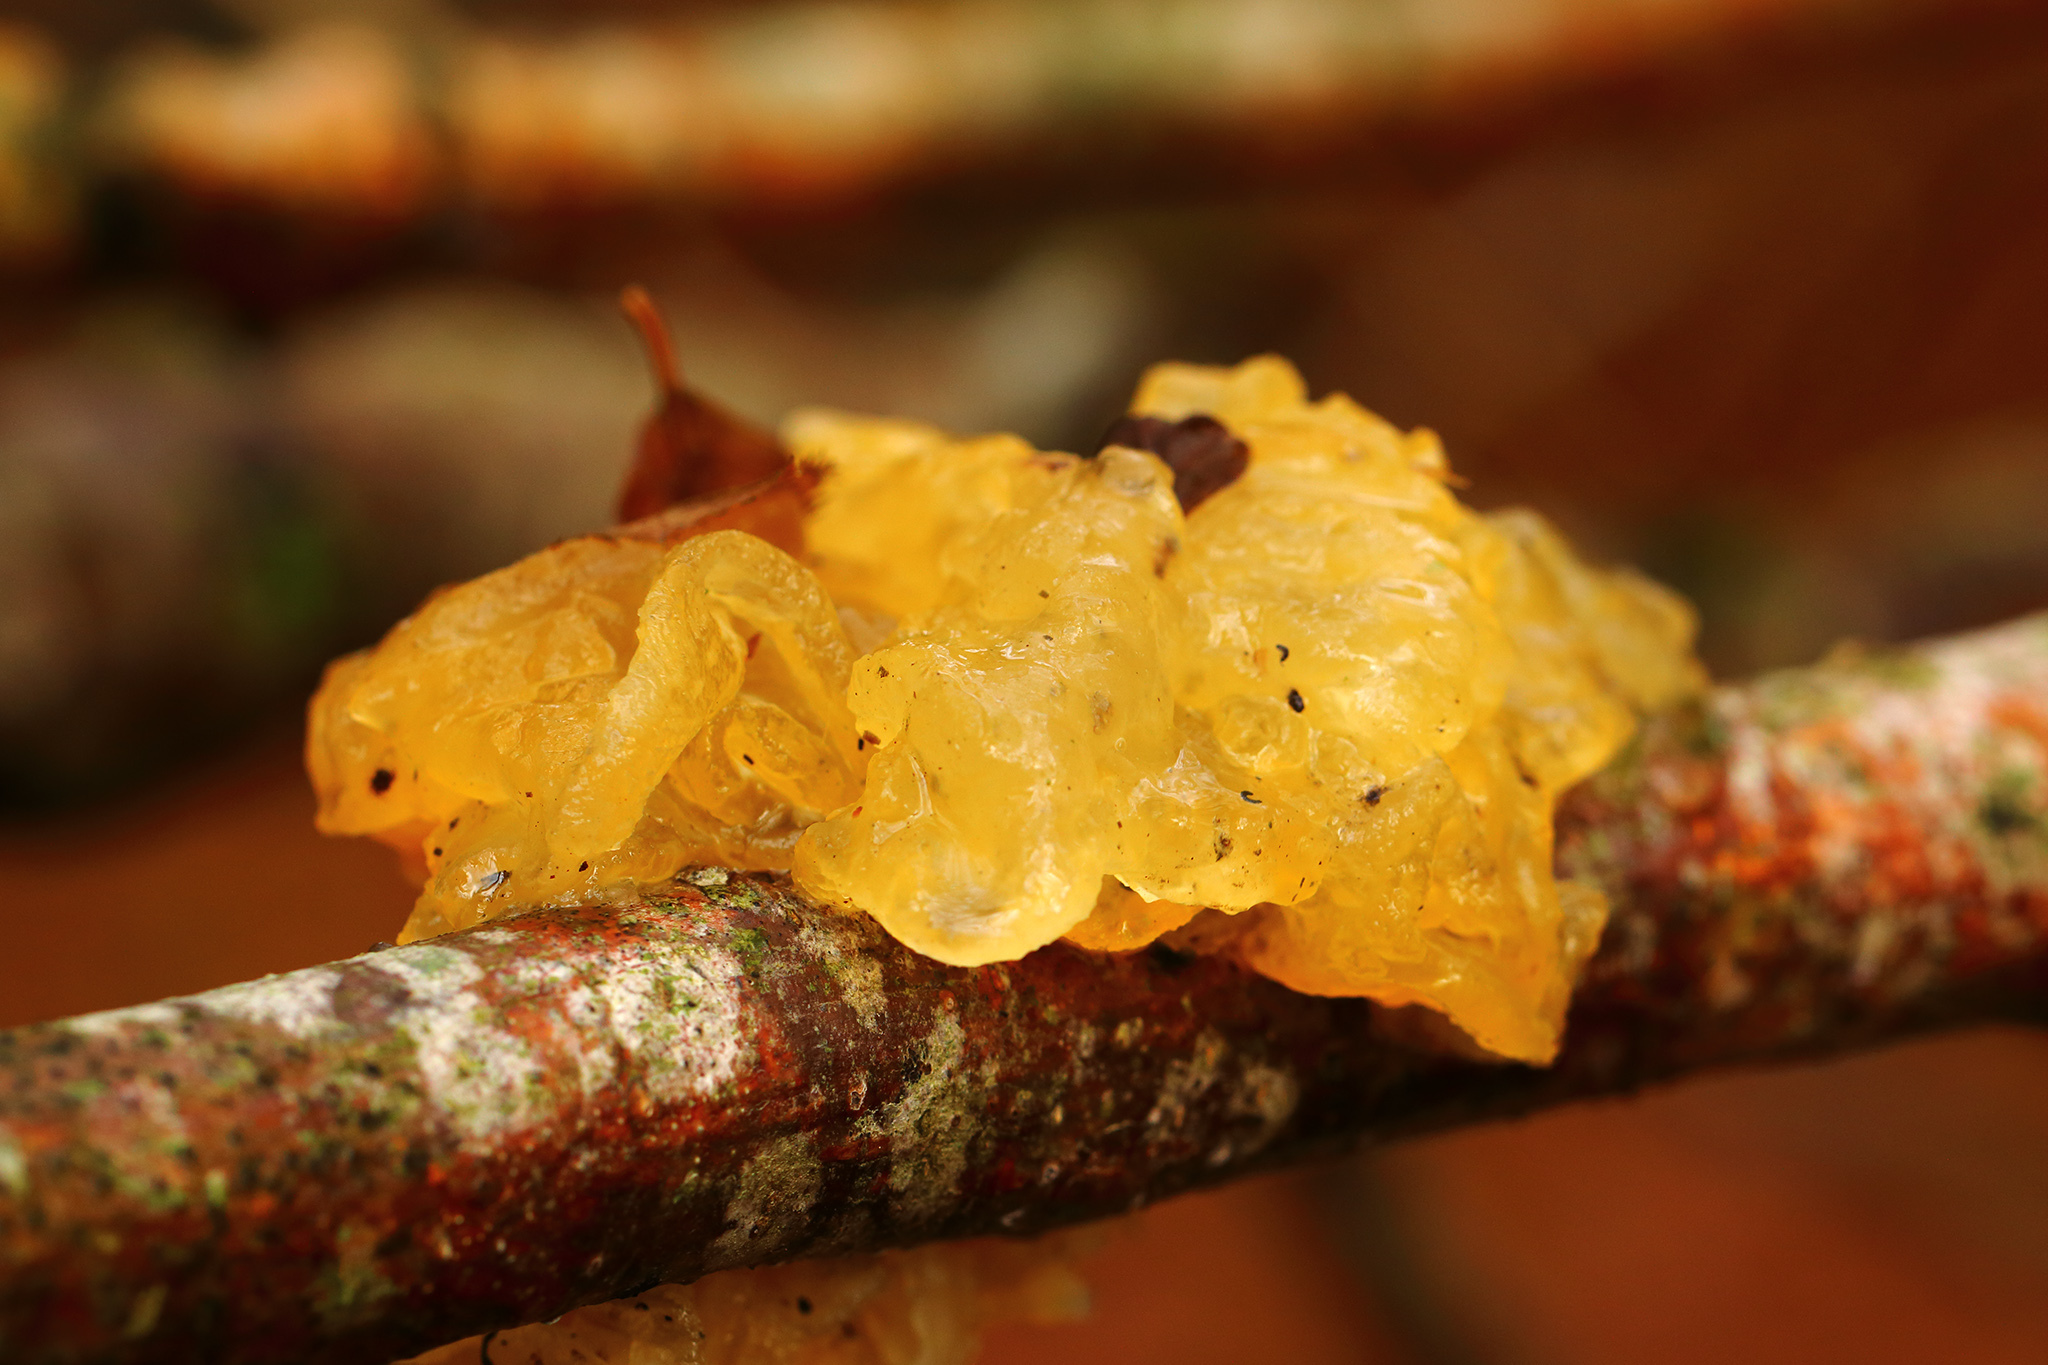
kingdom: Fungi
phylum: Basidiomycota
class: Tremellomycetes
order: Tremellales
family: Tremellaceae
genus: Tremella
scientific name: Tremella mesenterica
